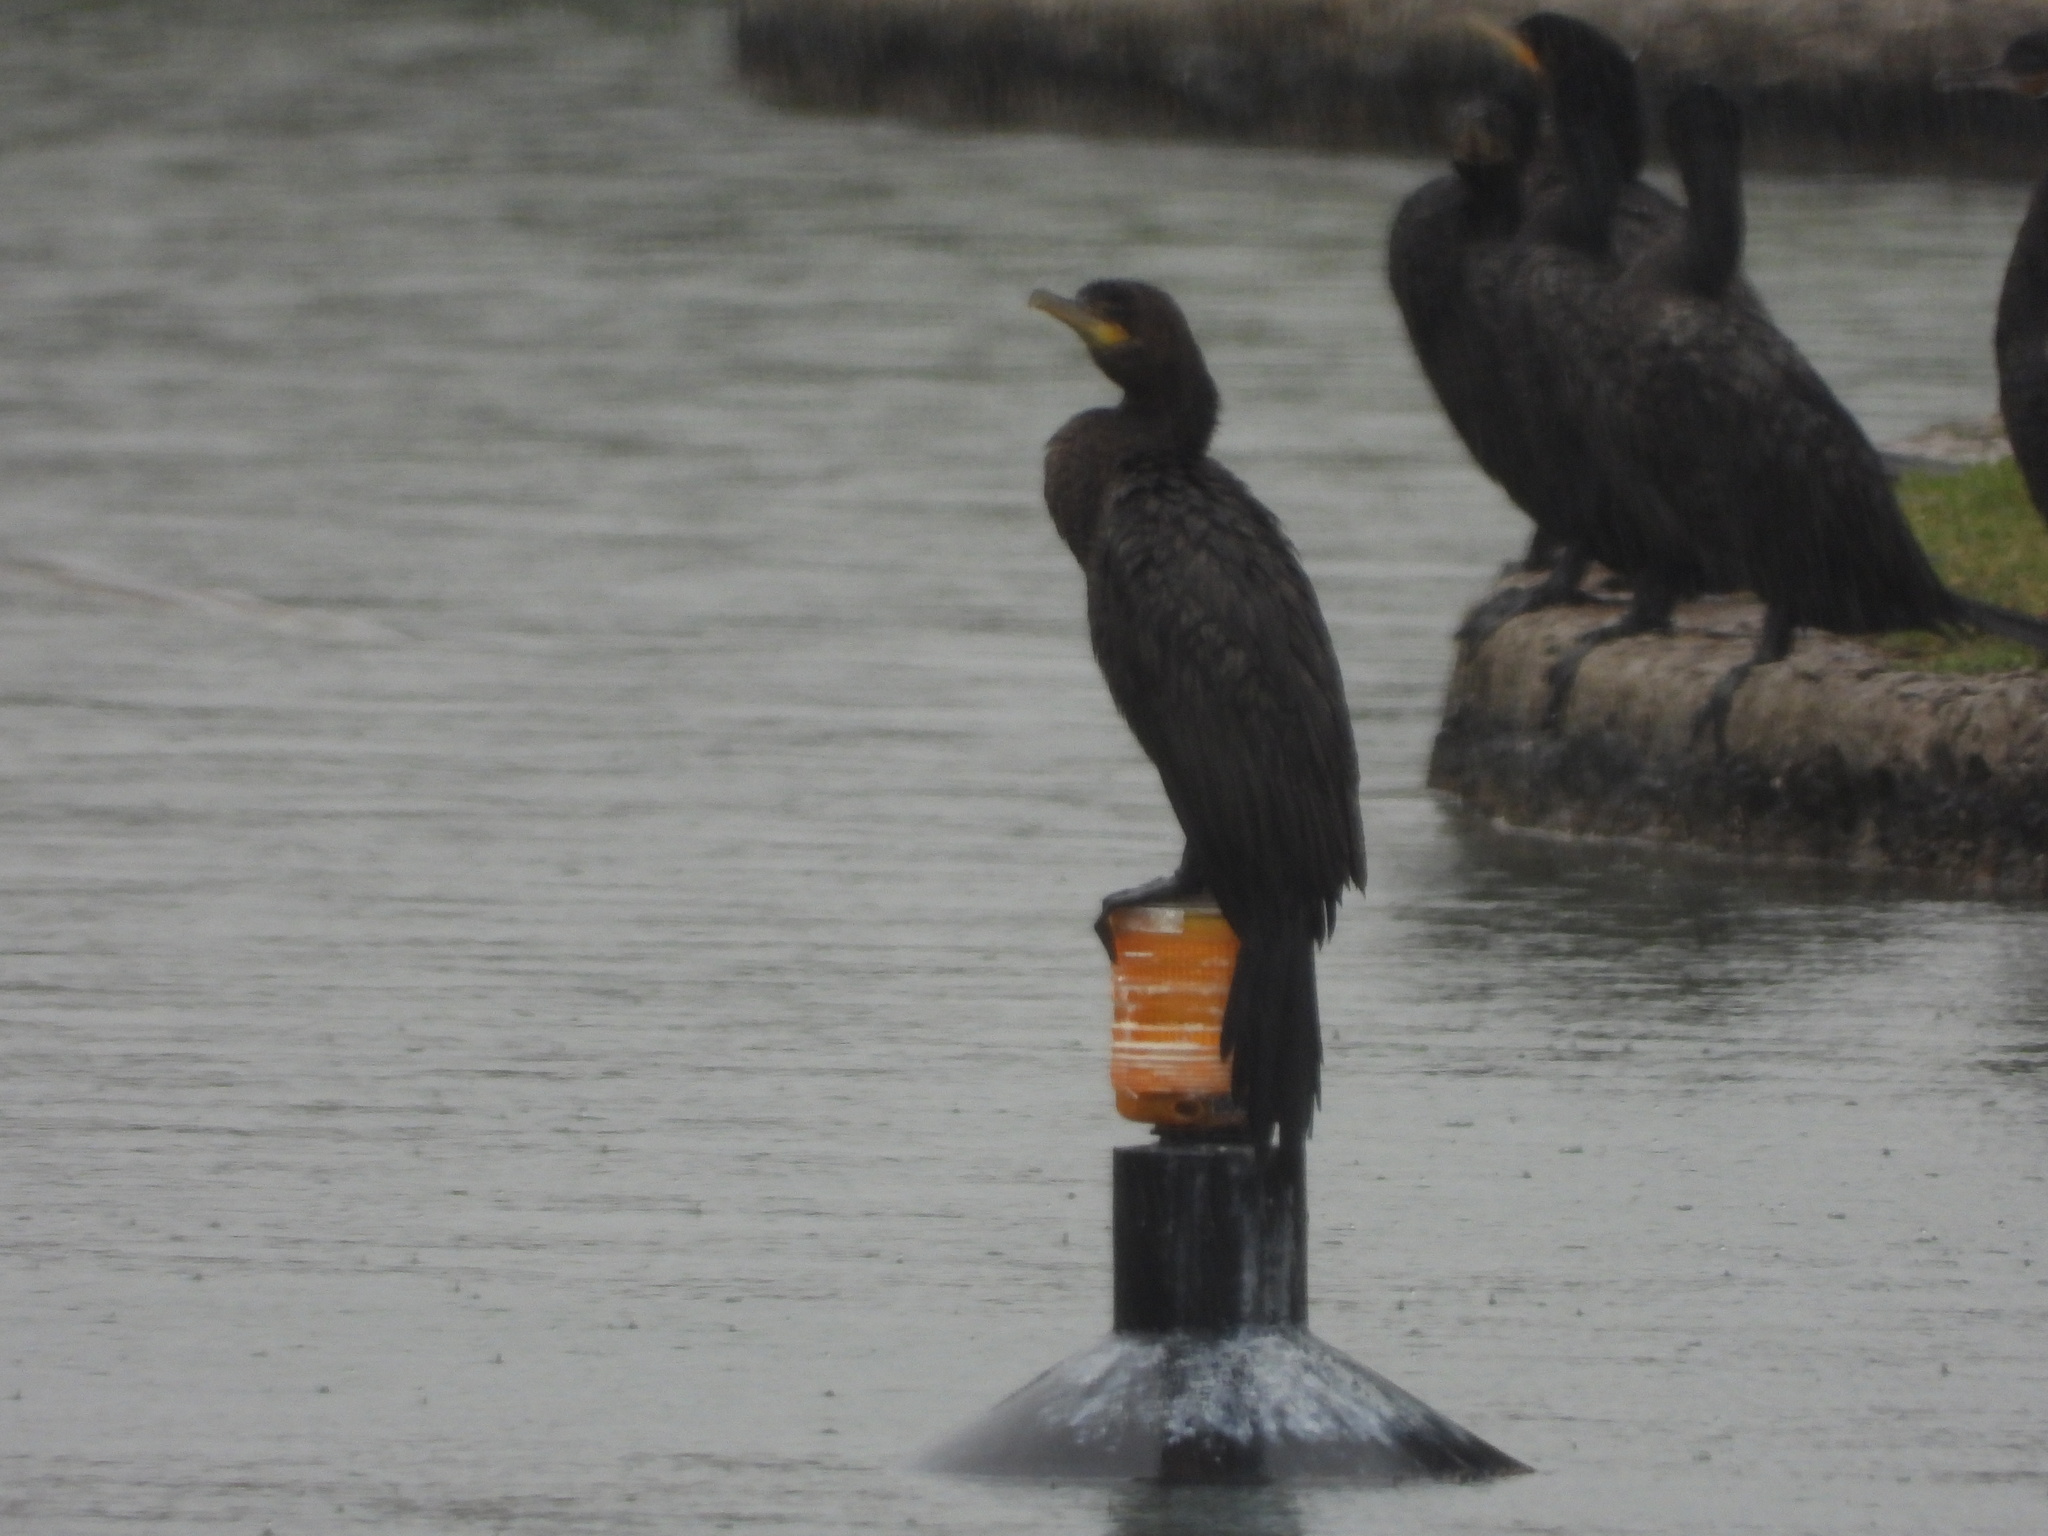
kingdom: Animalia
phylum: Chordata
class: Aves
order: Suliformes
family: Phalacrocoracidae
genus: Phalacrocorax
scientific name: Phalacrocorax brasilianus
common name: Neotropic cormorant
